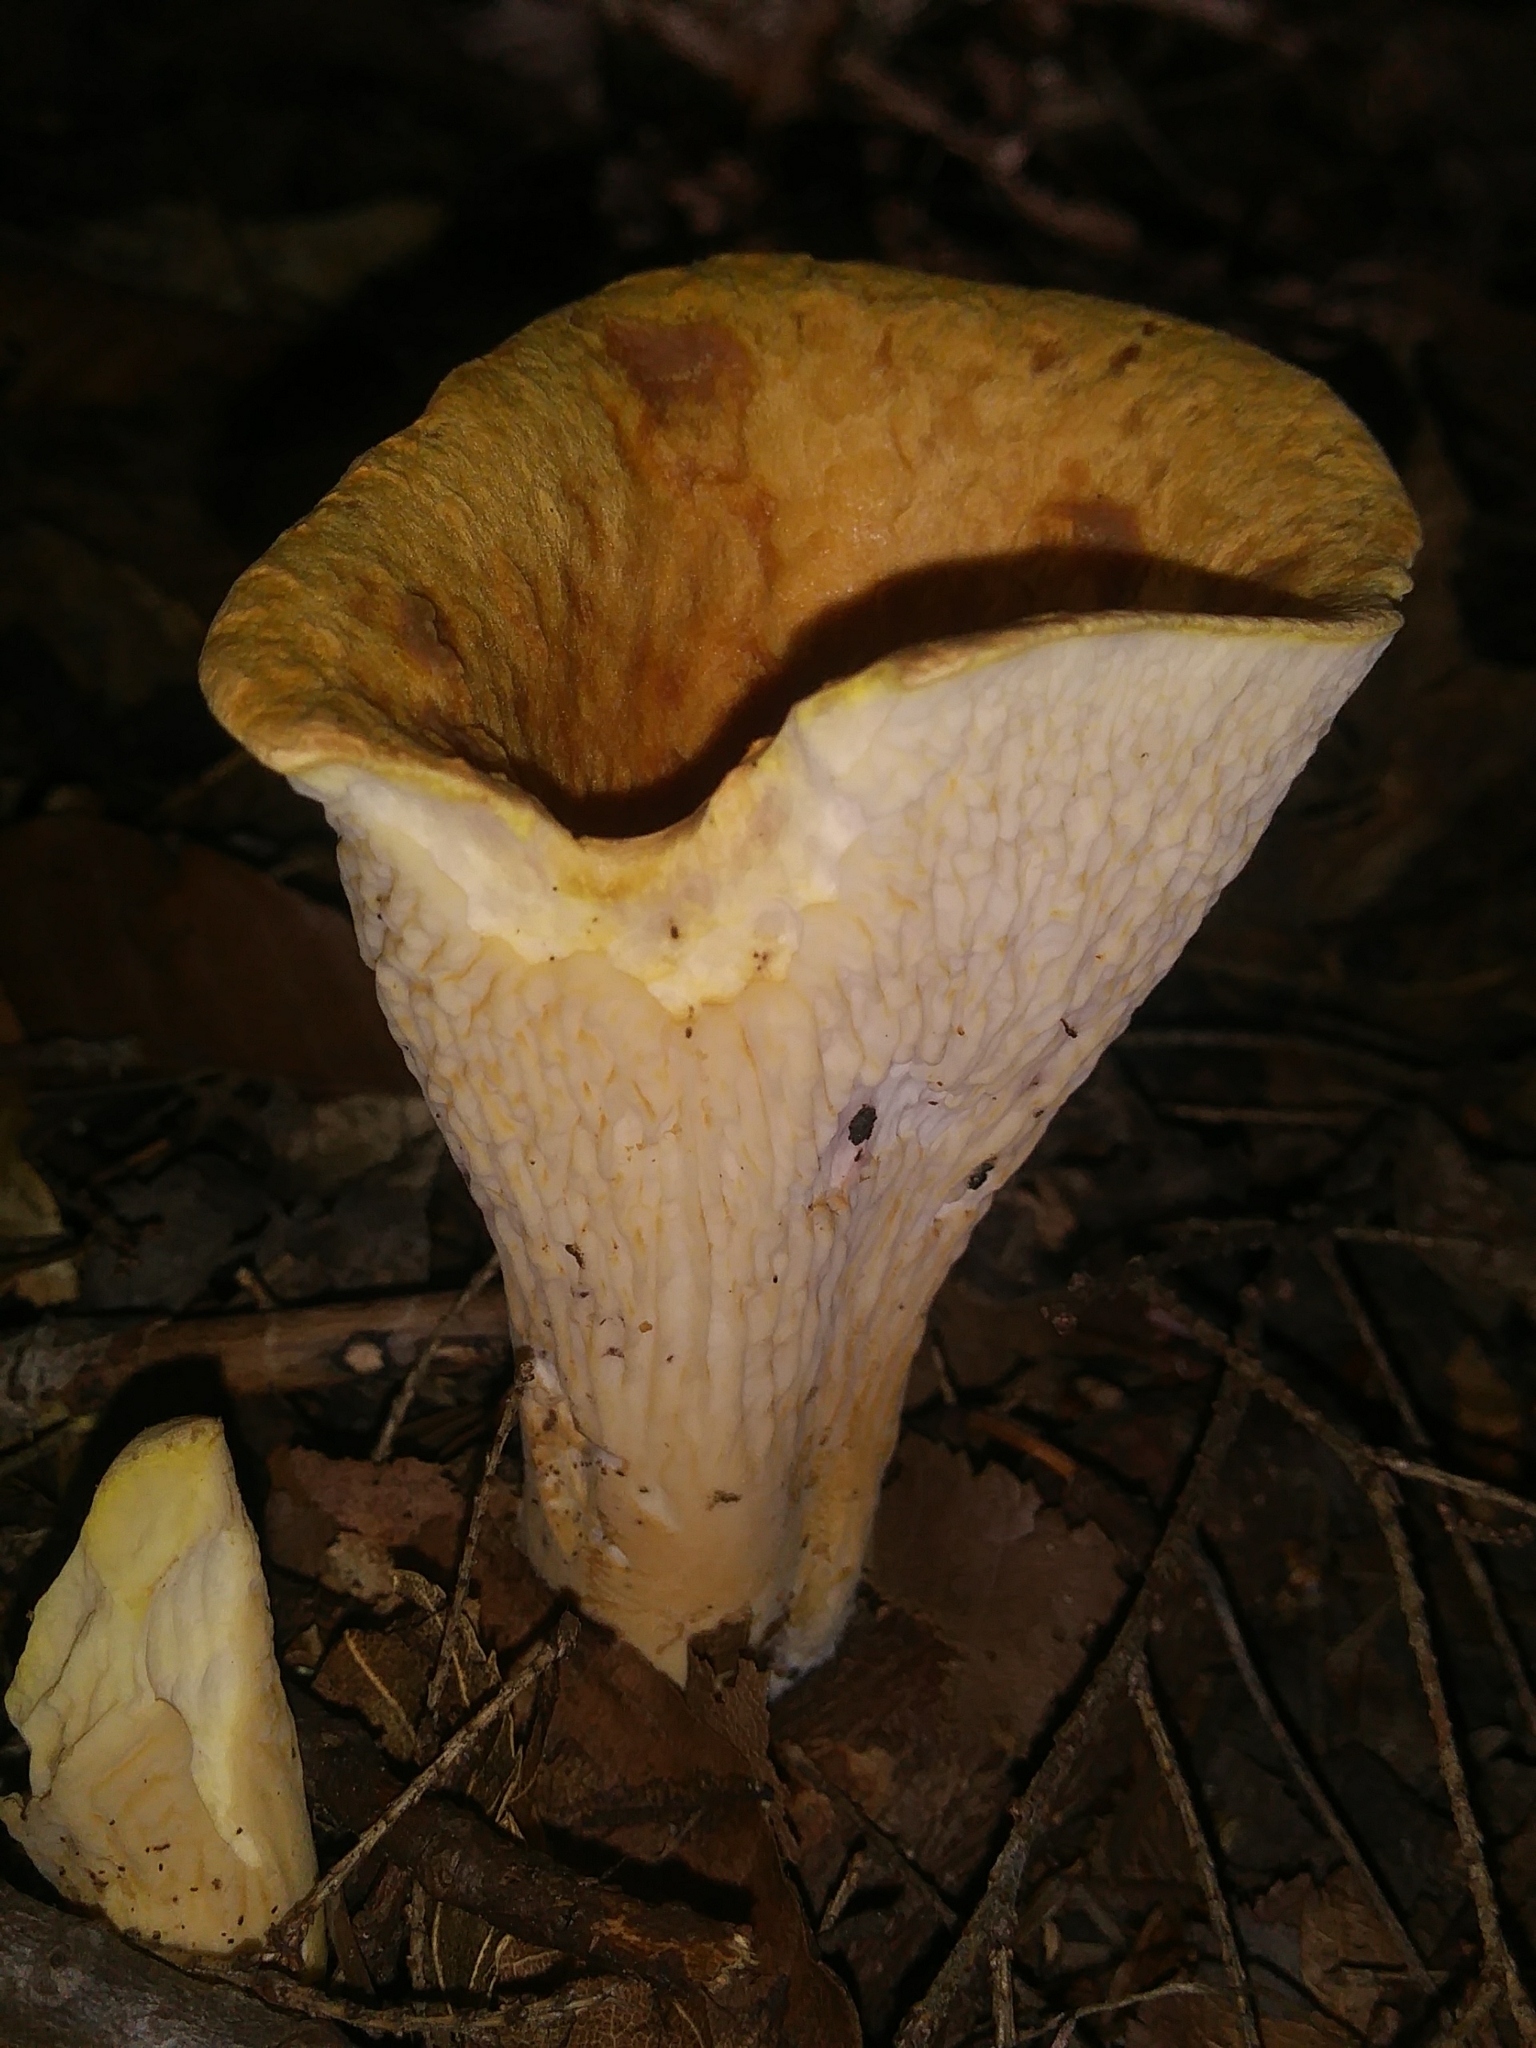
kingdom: Fungi
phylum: Basidiomycota
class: Agaricomycetes
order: Gomphales
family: Gomphaceae
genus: Turbinellus
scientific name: Turbinellus floccosus
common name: Scaly chanterelle
